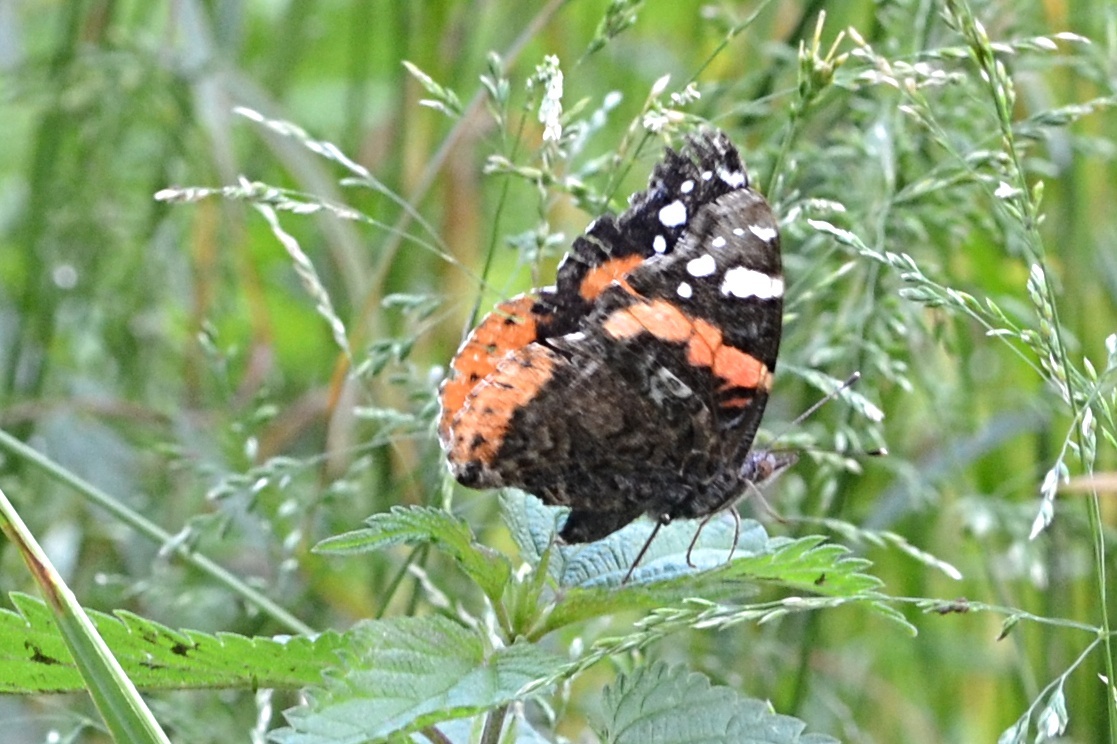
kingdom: Animalia
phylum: Arthropoda
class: Insecta
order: Lepidoptera
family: Nymphalidae
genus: Vanessa
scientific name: Vanessa atalanta
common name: Red admiral
